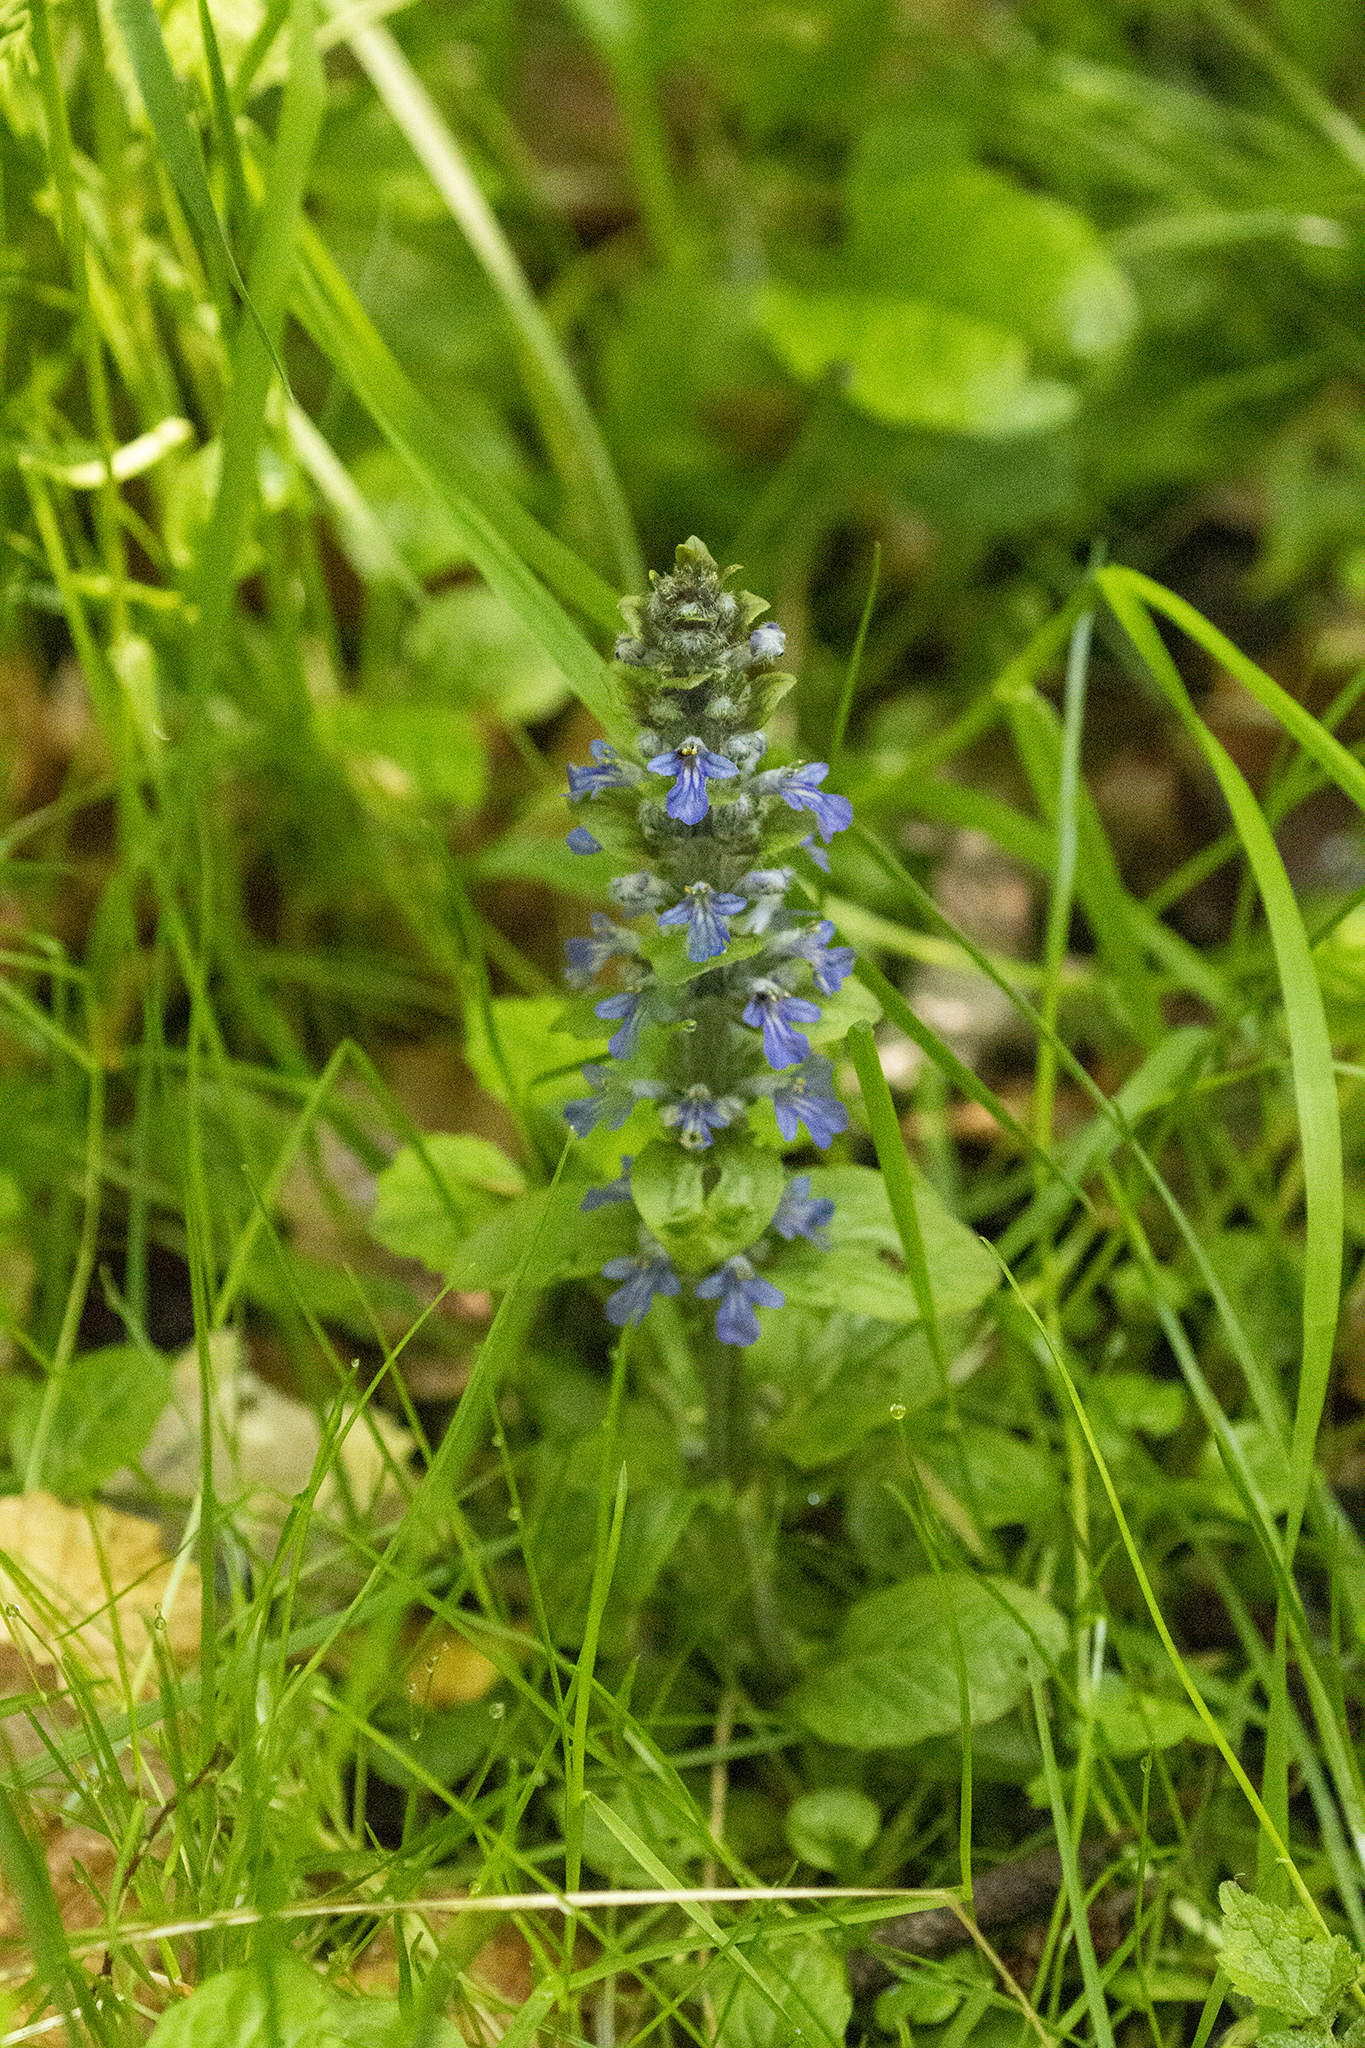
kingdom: Plantae
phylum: Tracheophyta
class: Magnoliopsida
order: Lamiales
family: Lamiaceae
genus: Ajuga
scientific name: Ajuga reptans
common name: Bugle
